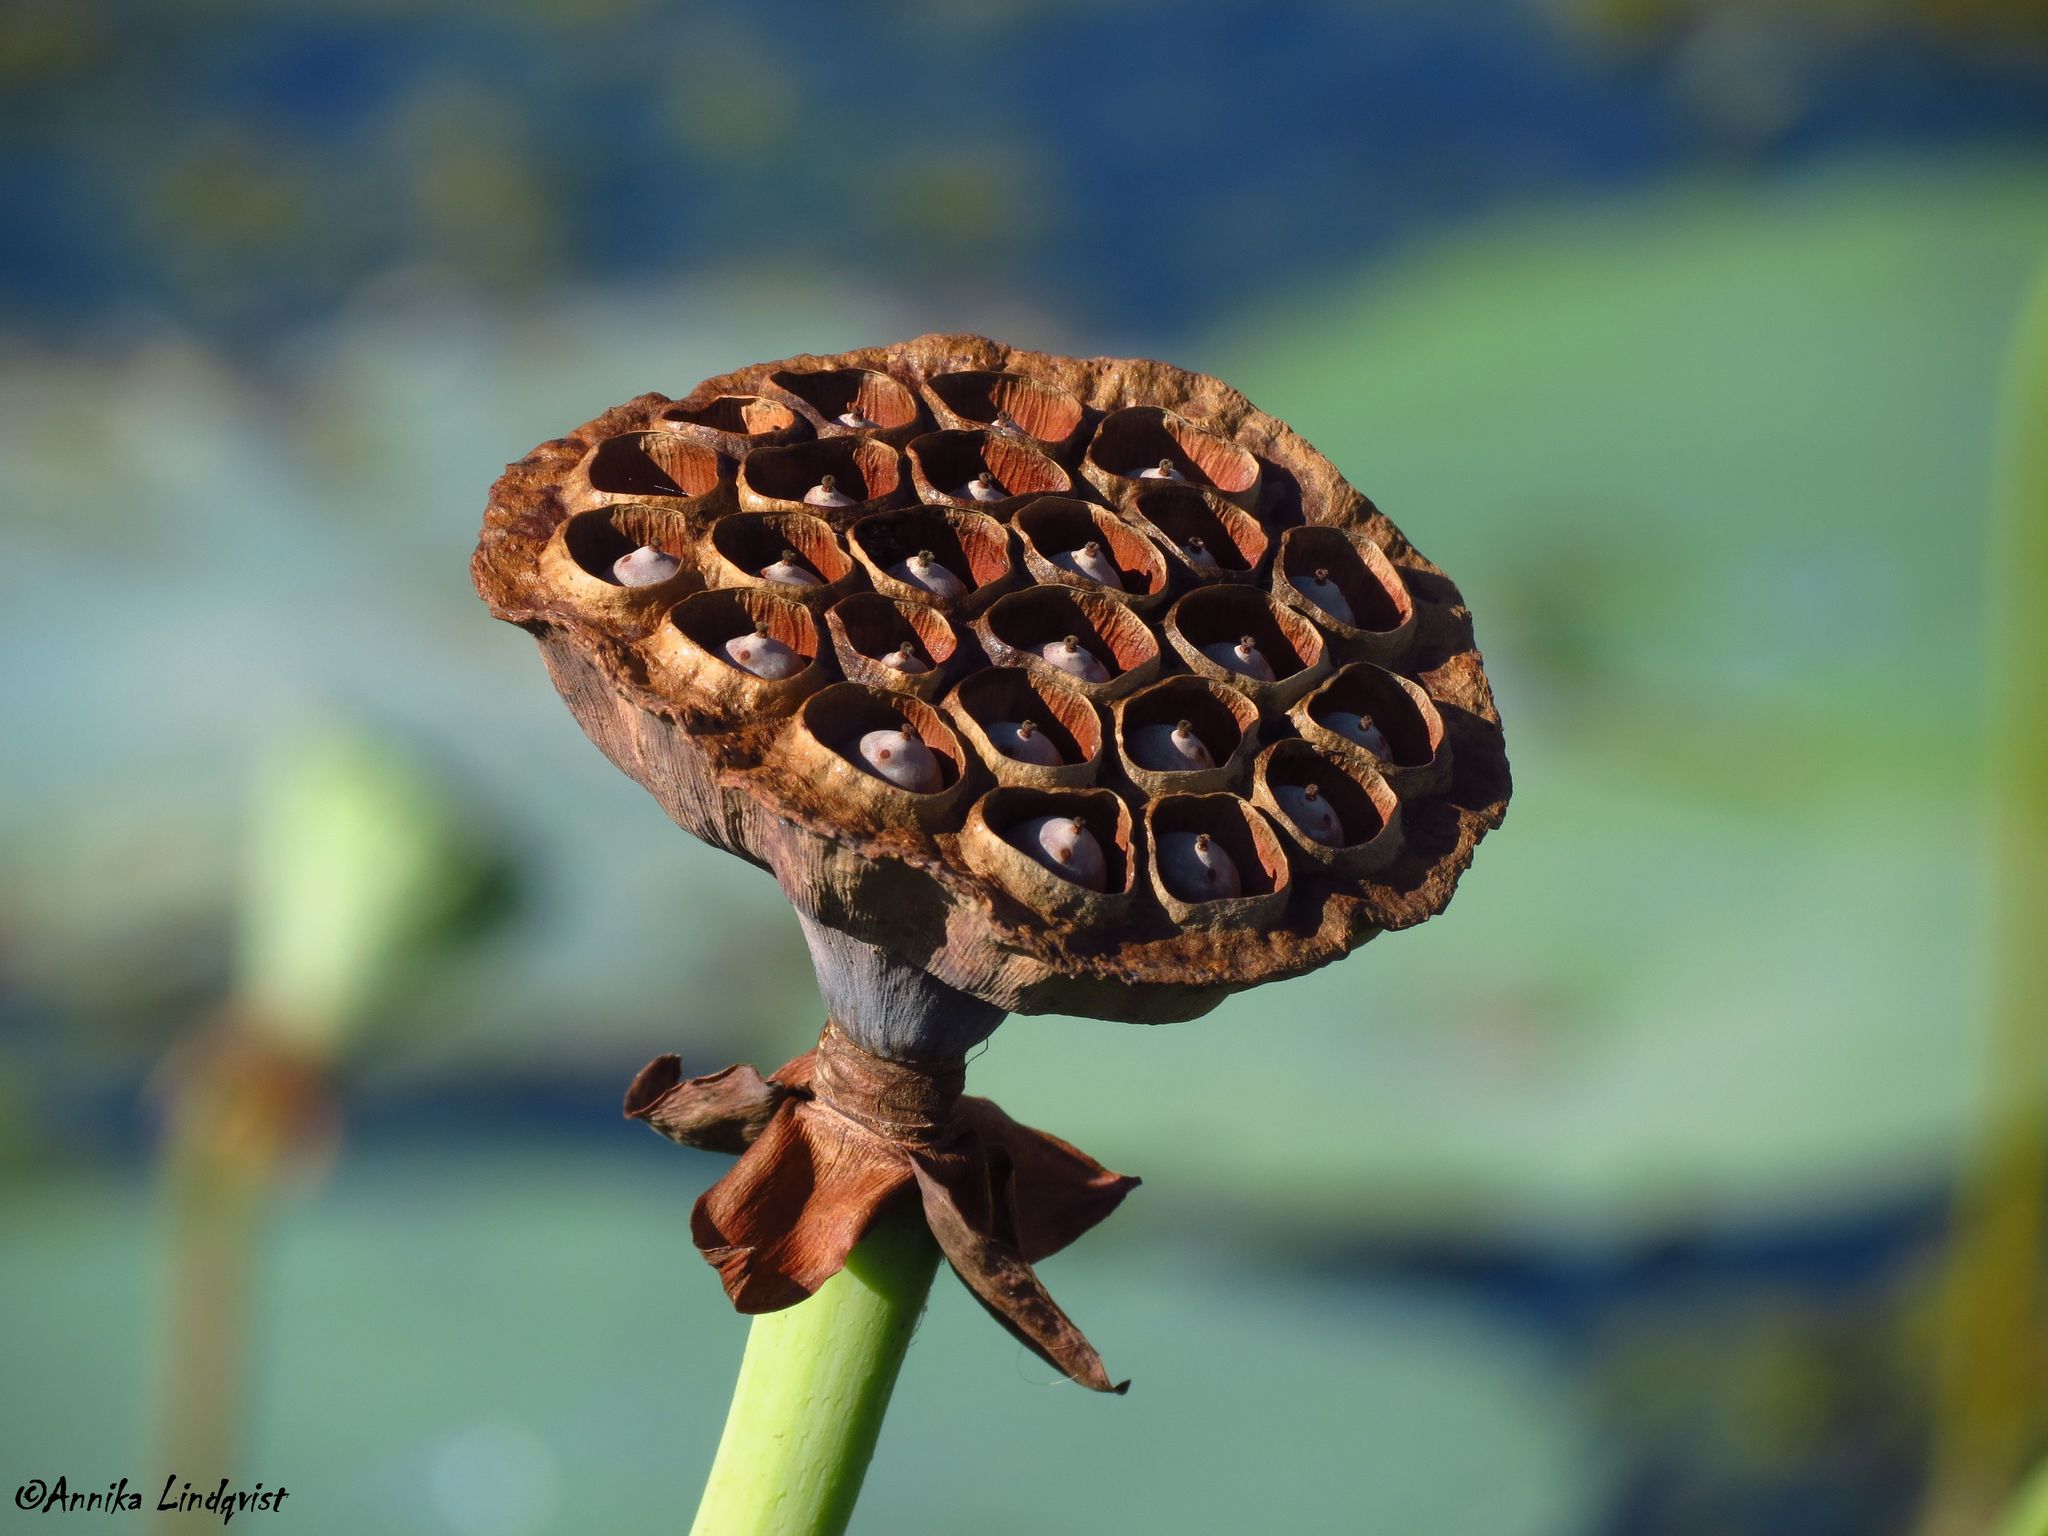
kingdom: Plantae
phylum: Tracheophyta
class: Magnoliopsida
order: Proteales
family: Nelumbonaceae
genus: Nelumbo
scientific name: Nelumbo lutea
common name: American lotus
